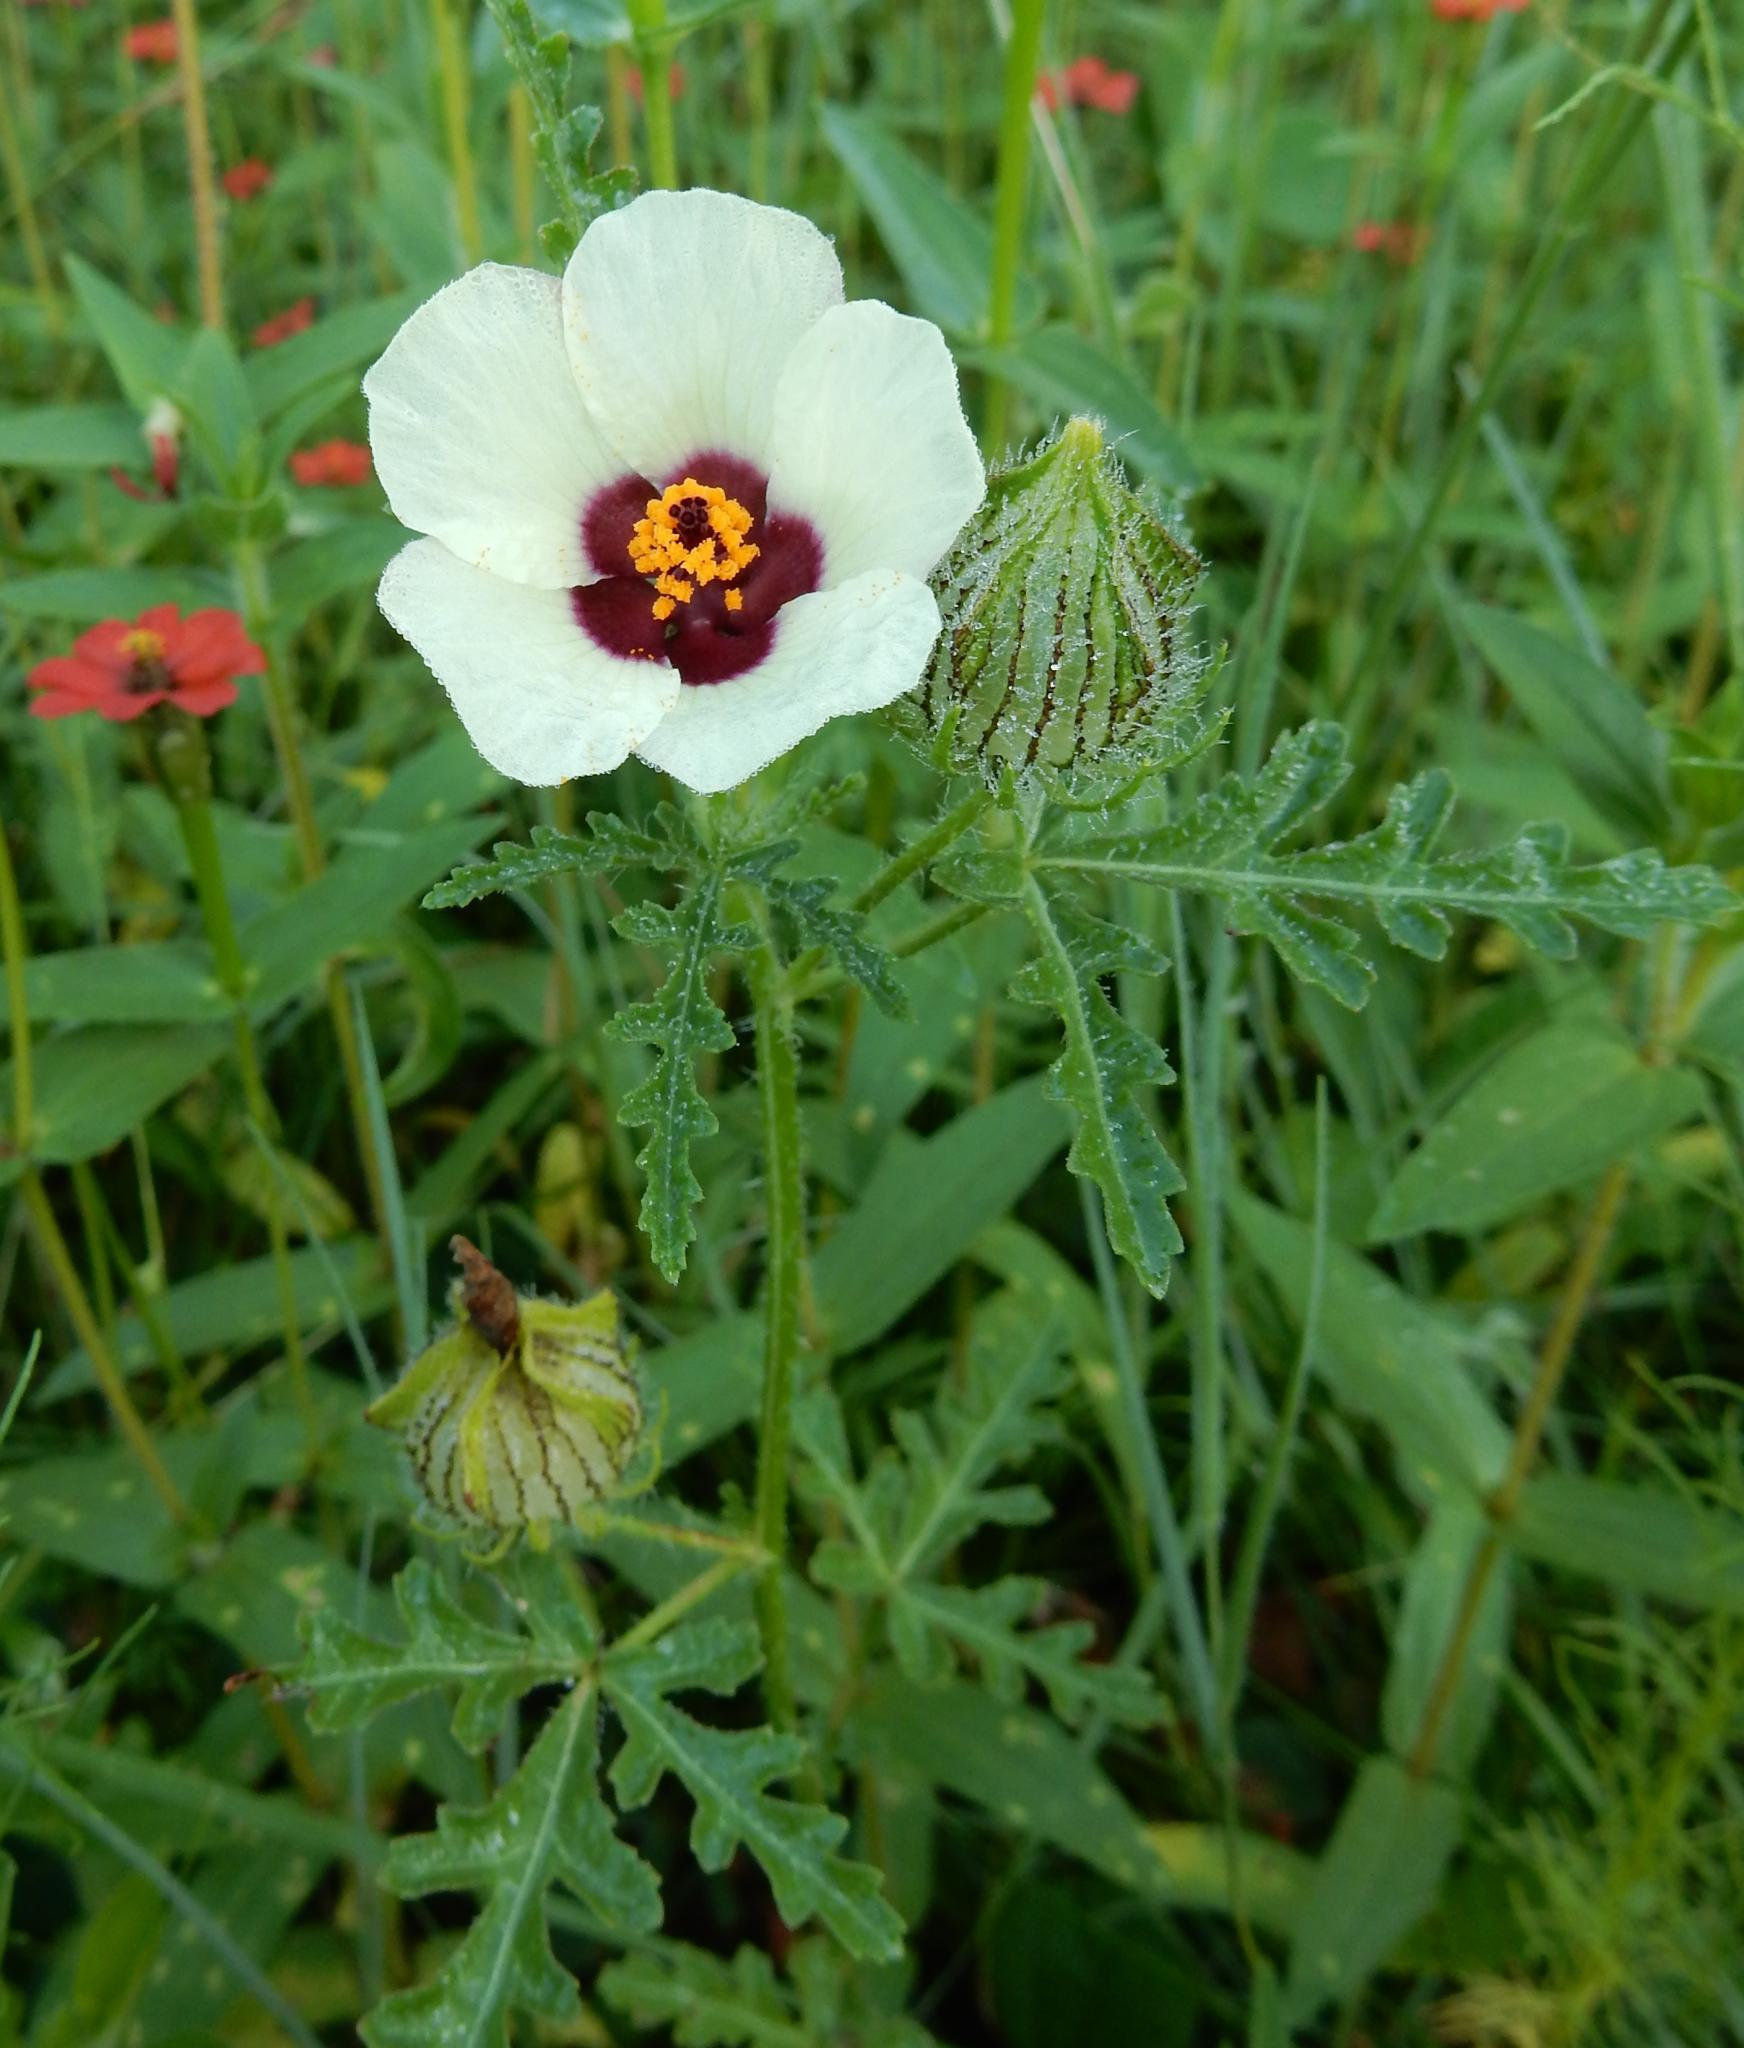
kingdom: Plantae
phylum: Tracheophyta
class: Magnoliopsida
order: Malvales
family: Malvaceae
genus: Hibiscus
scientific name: Hibiscus trionum
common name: Bladder ketmia
